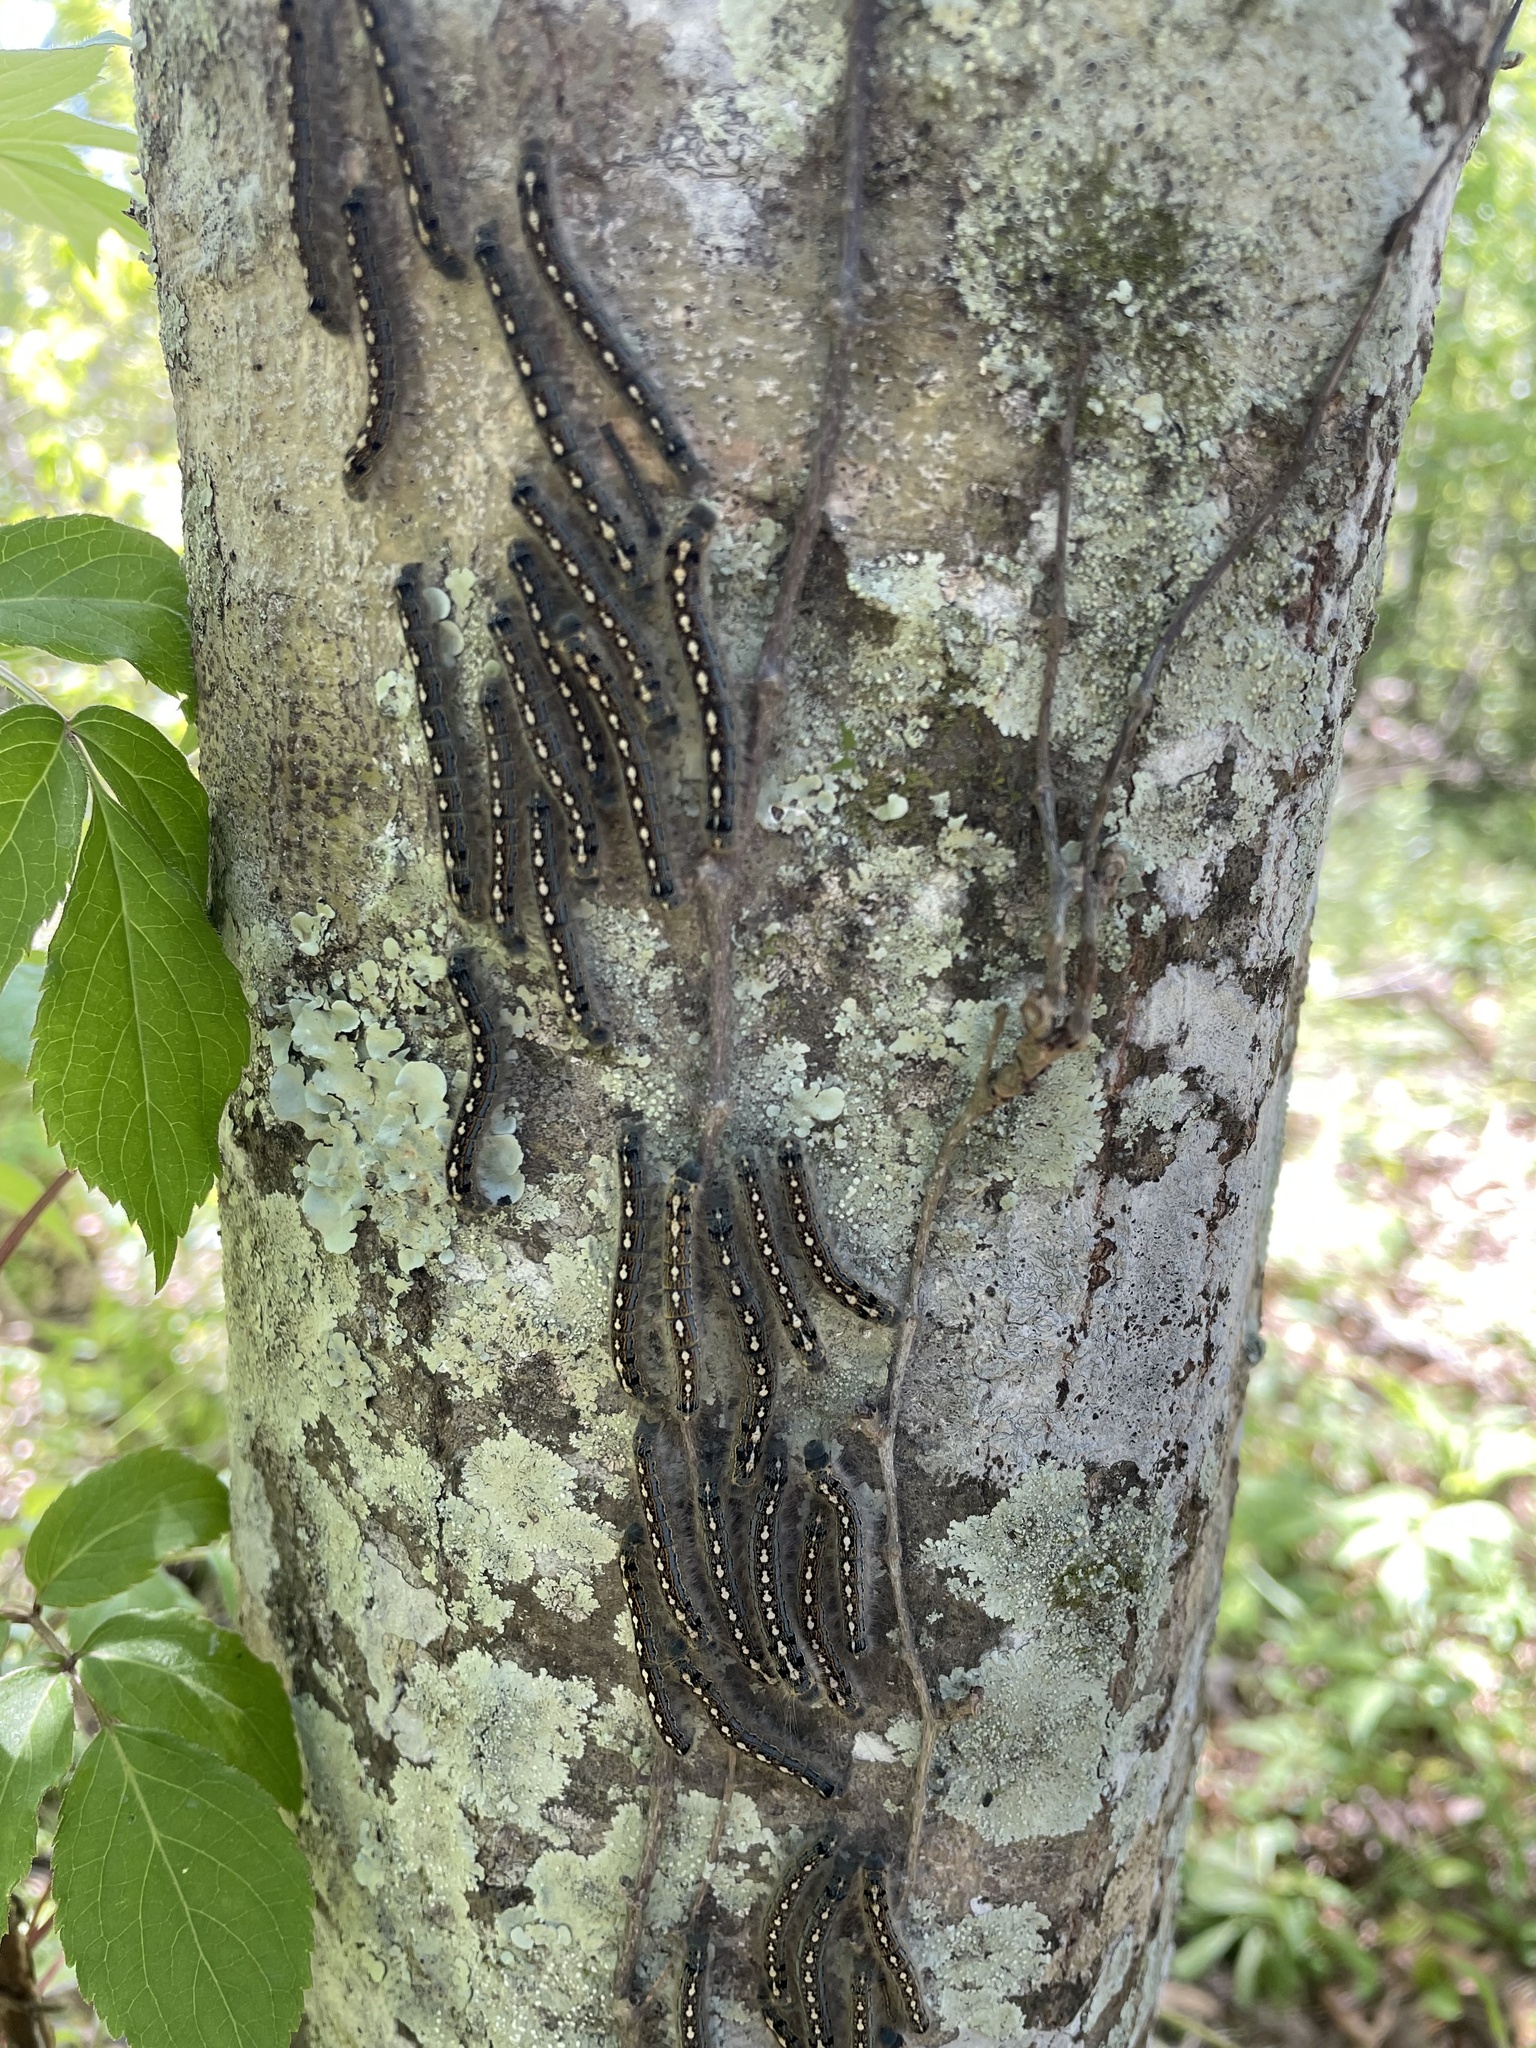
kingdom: Animalia
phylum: Arthropoda
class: Insecta
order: Lepidoptera
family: Lasiocampidae
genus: Malacosoma
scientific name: Malacosoma disstria
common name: Forest tent caterpillar
